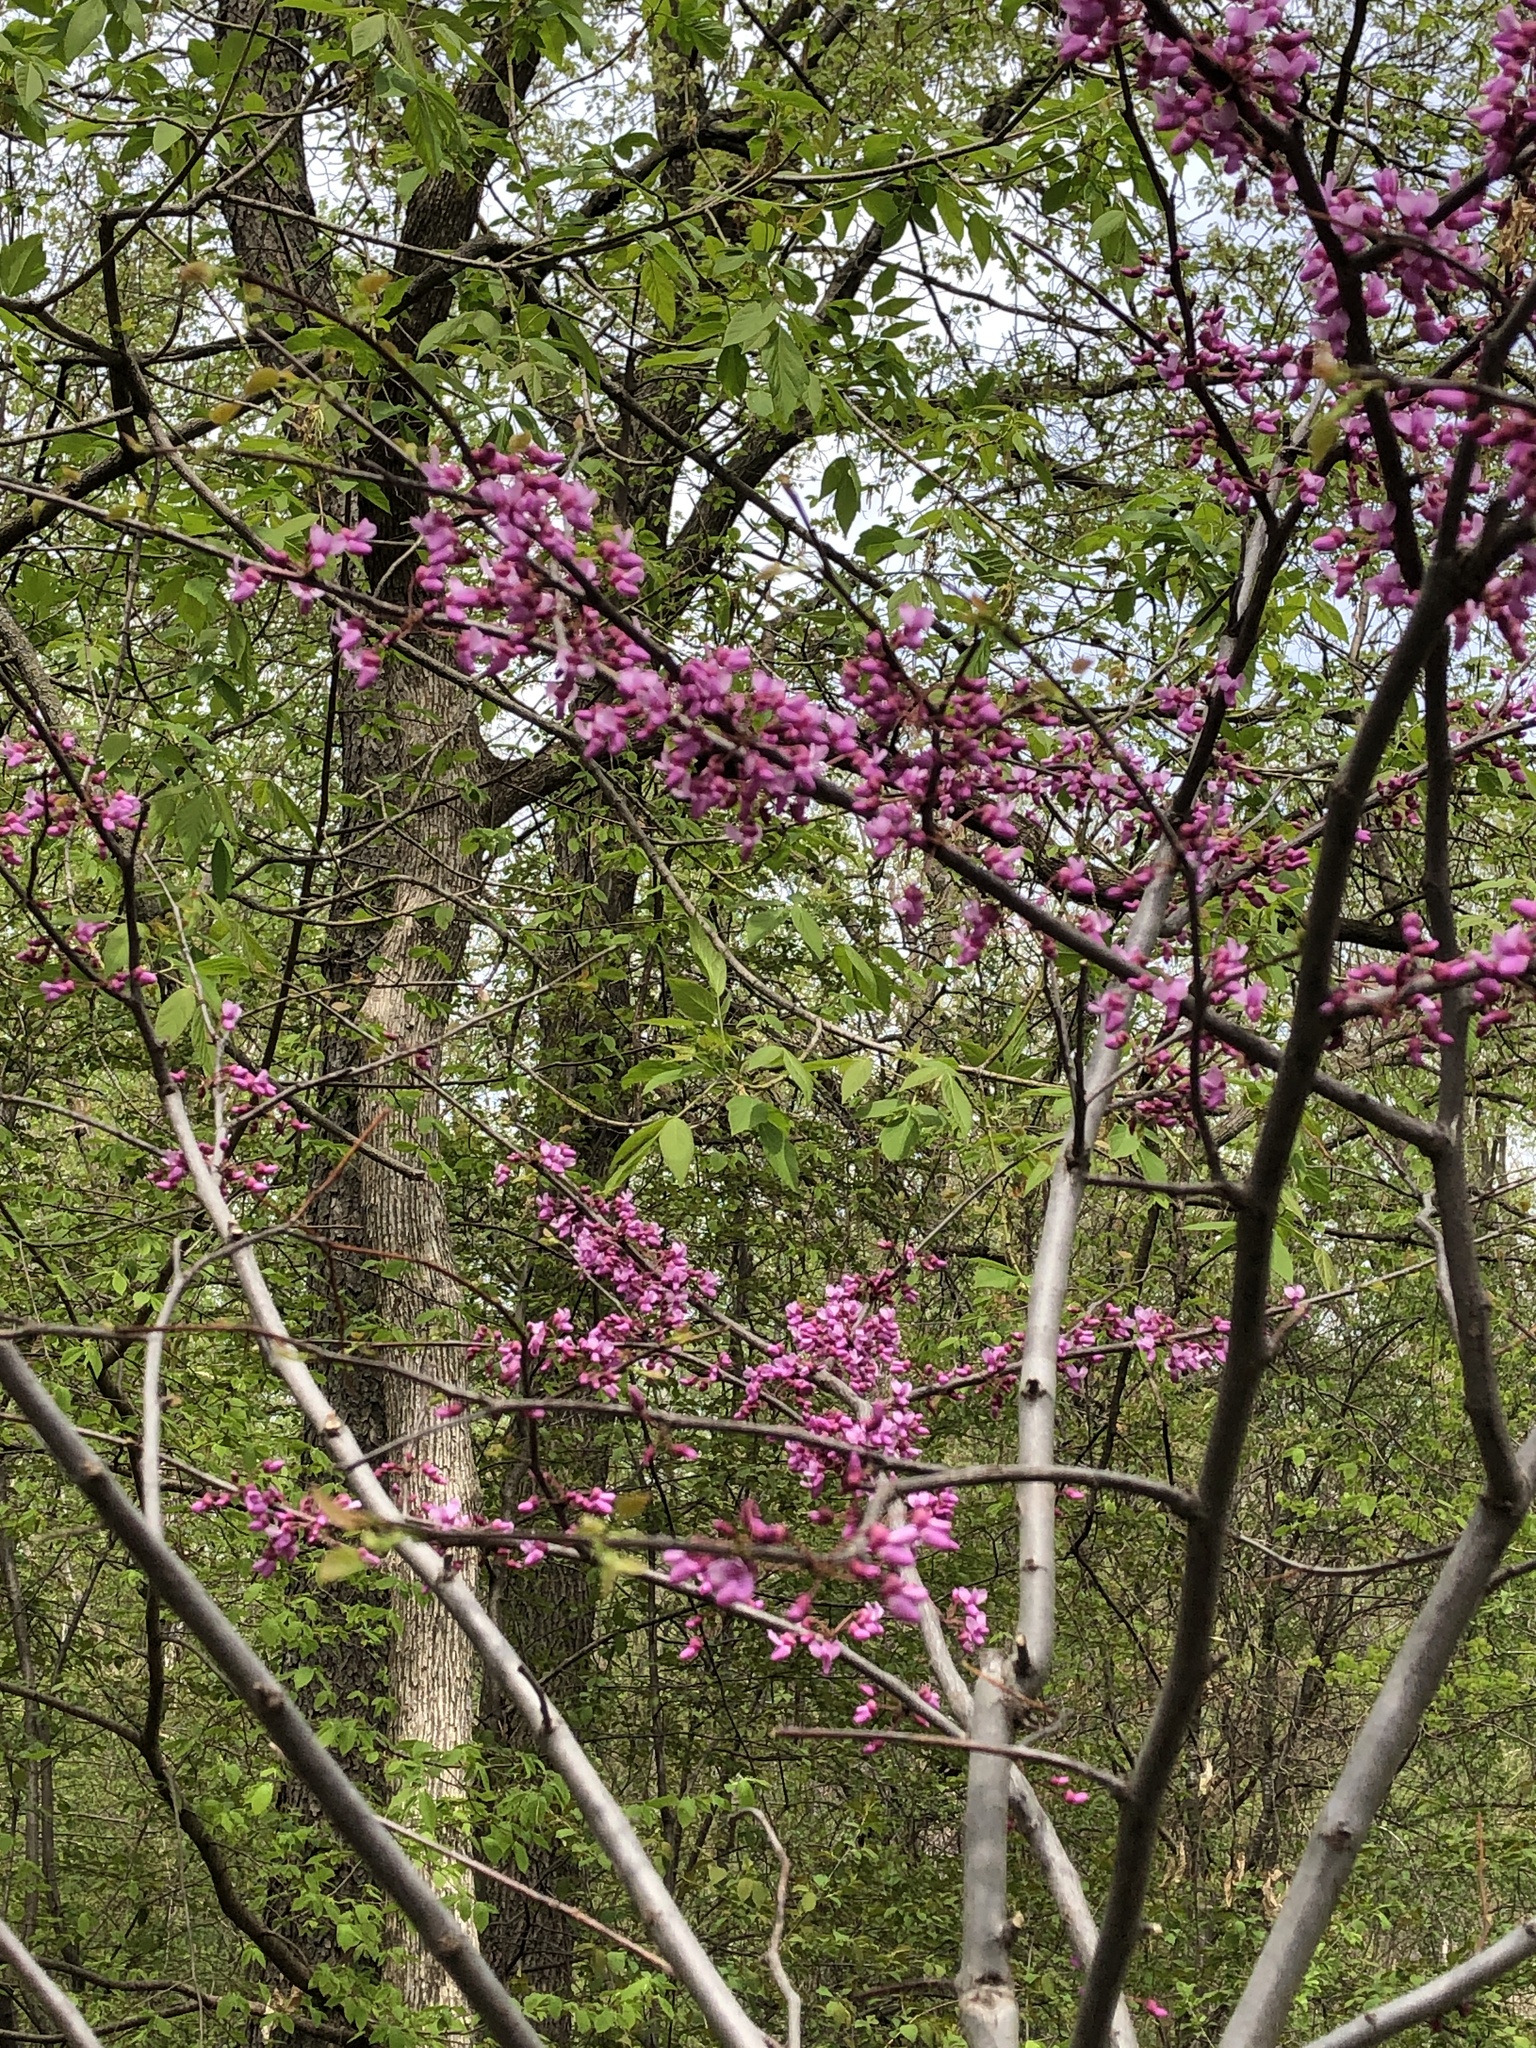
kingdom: Plantae
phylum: Tracheophyta
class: Magnoliopsida
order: Fabales
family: Fabaceae
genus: Cercis
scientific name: Cercis canadensis
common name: Eastern redbud
